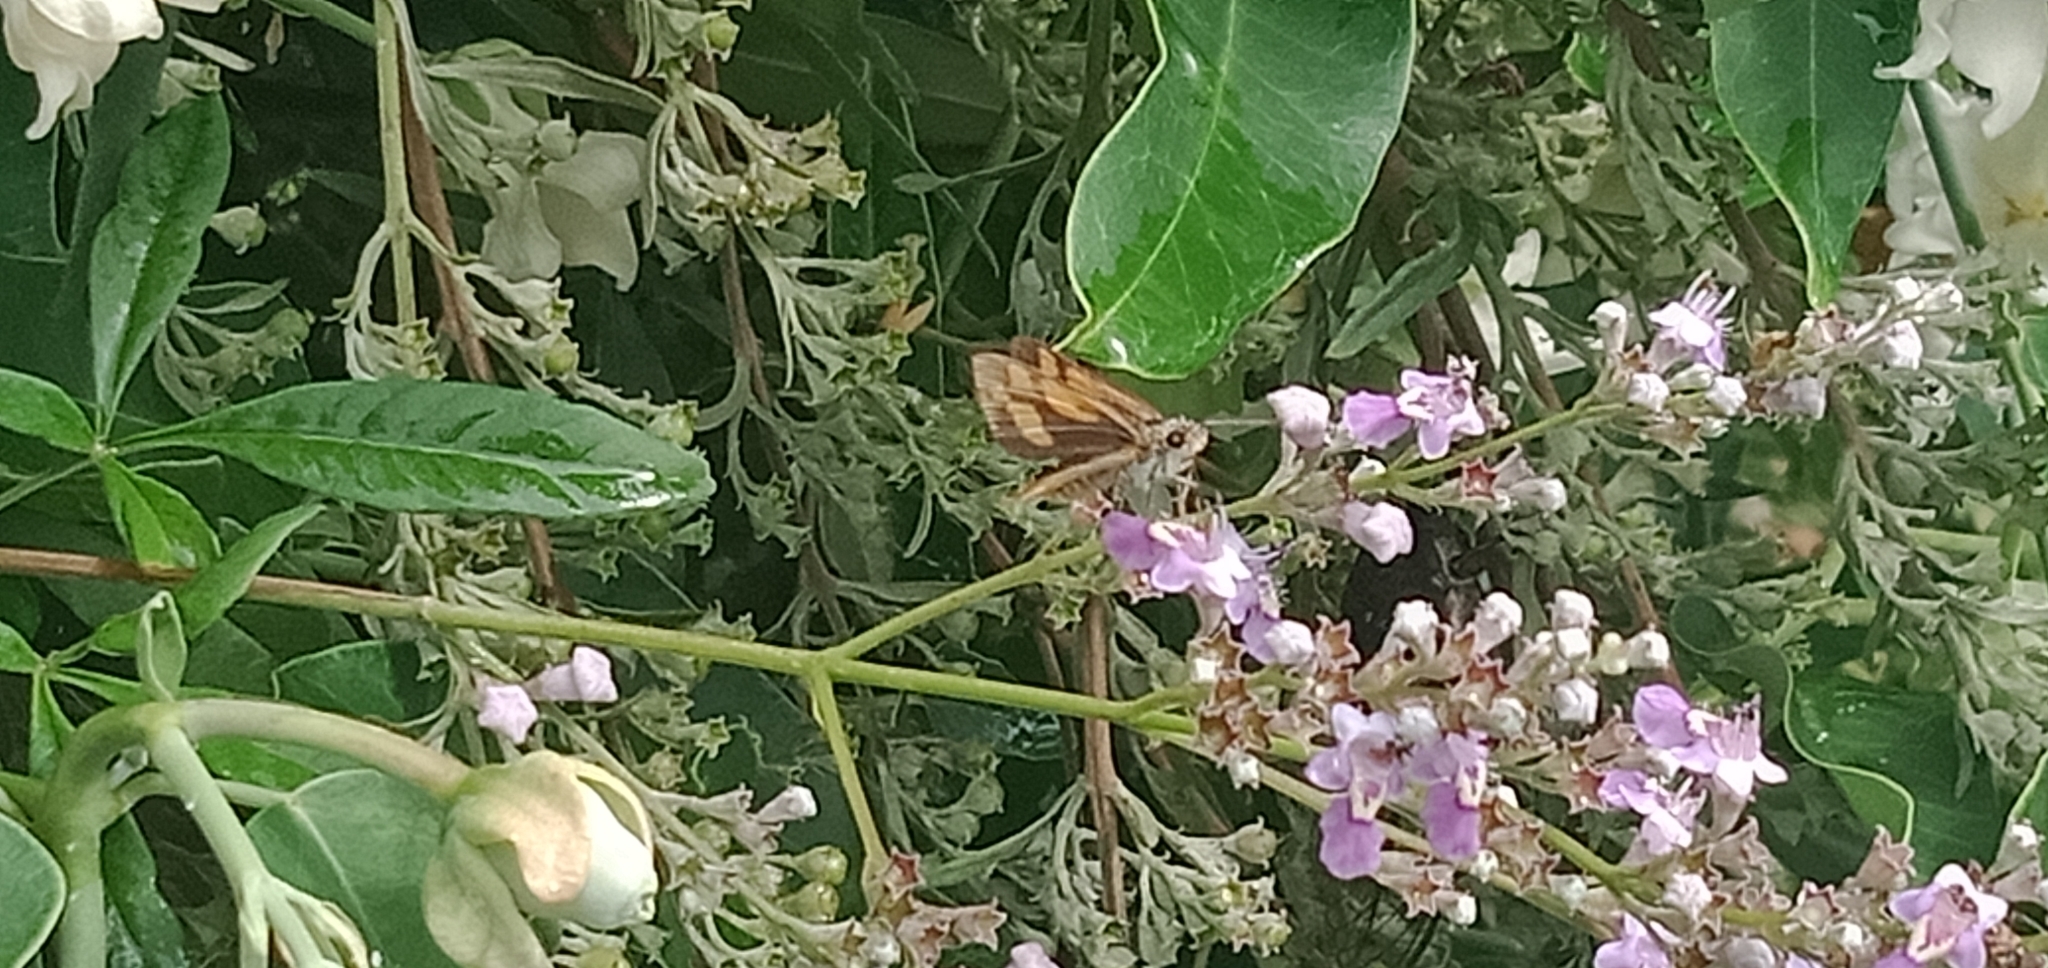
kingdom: Animalia
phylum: Arthropoda
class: Insecta
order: Lepidoptera
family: Hesperiidae
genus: Ocybadistes
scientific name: Ocybadistes walkeri
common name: Yellow-banded dart
